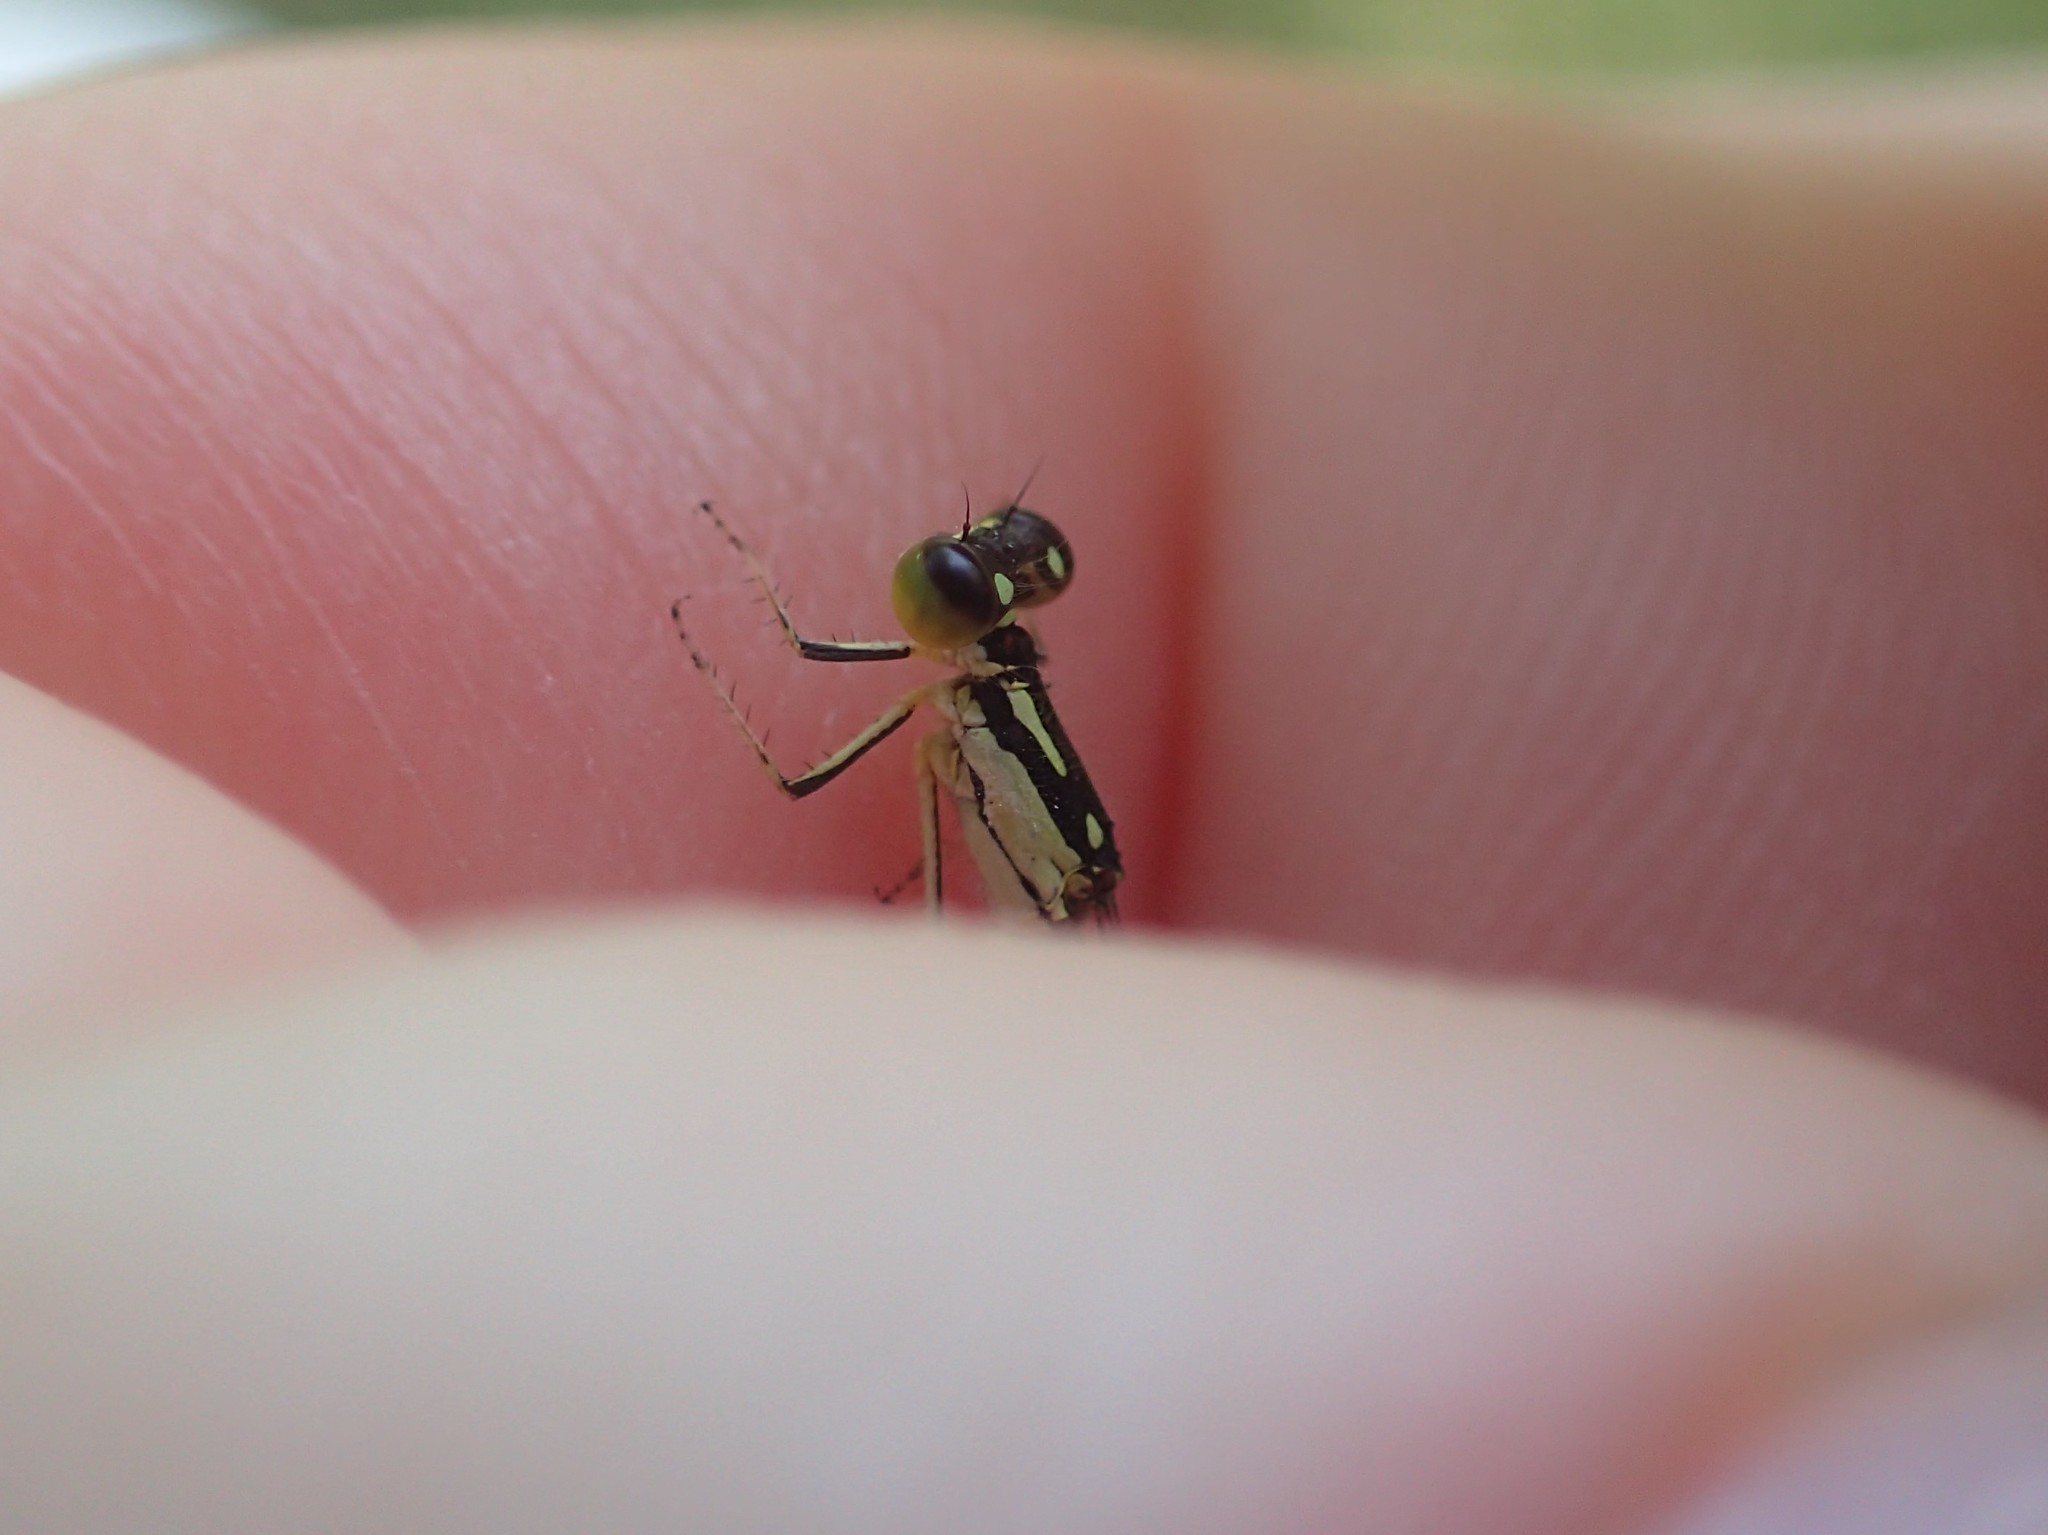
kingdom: Animalia
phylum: Arthropoda
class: Insecta
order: Odonata
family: Coenagrionidae
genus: Ischnura
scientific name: Ischnura posita
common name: Fragile forktail
